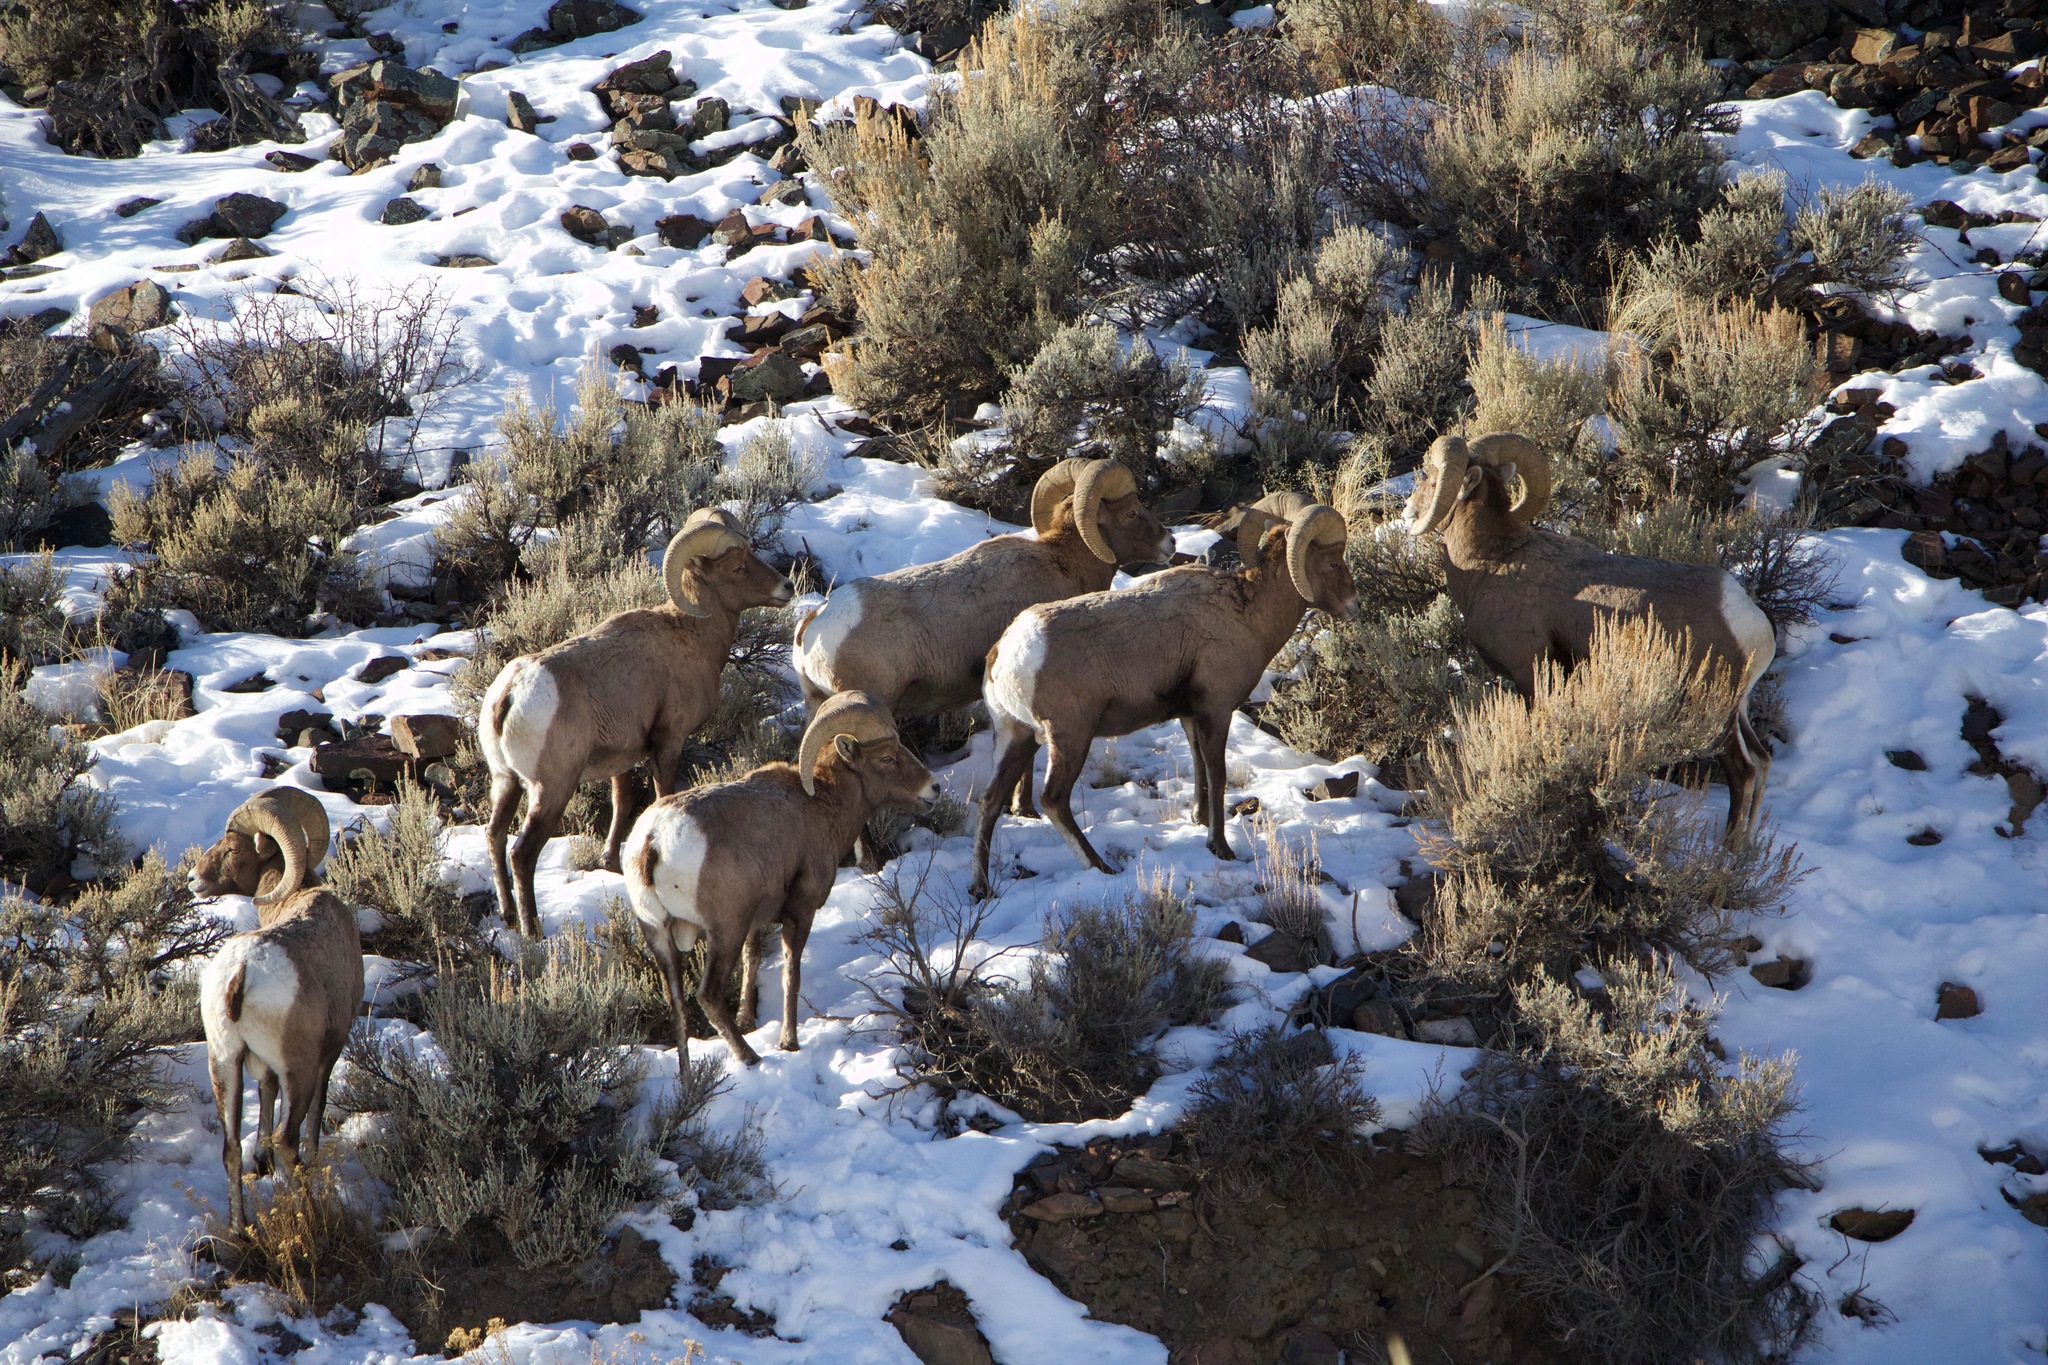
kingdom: Animalia
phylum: Chordata
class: Mammalia
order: Artiodactyla
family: Bovidae
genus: Ovis
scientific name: Ovis canadensis
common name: Bighorn sheep
